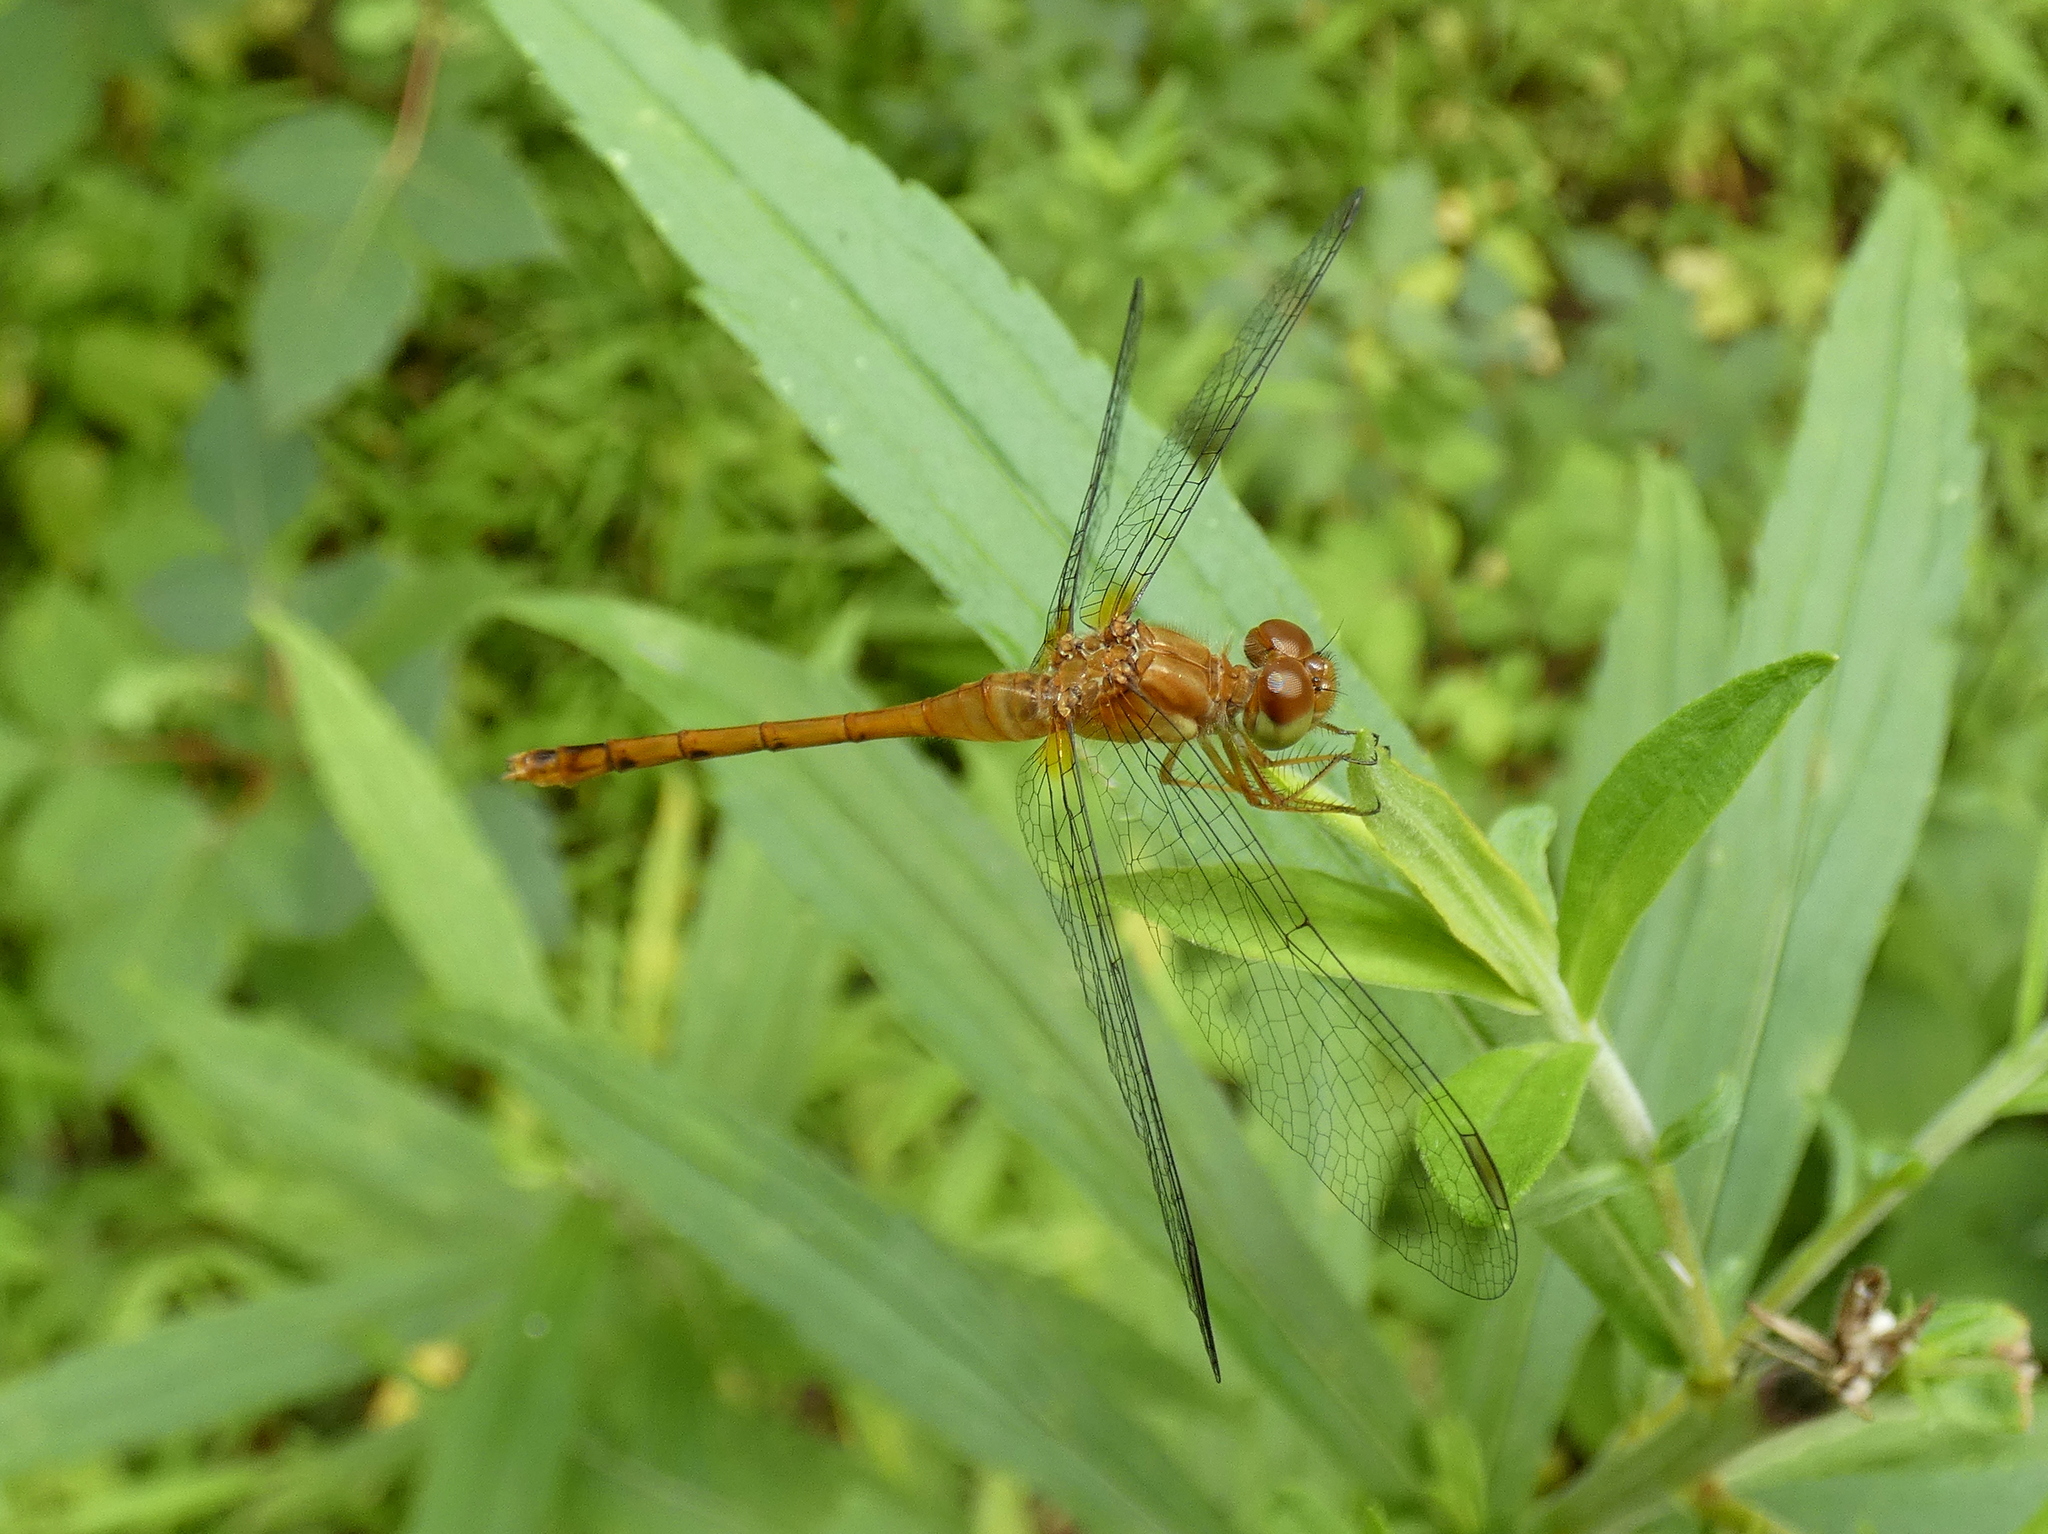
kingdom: Animalia
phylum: Arthropoda
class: Insecta
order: Odonata
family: Libellulidae
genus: Sympetrum
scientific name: Sympetrum vicinum
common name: Autumn meadowhawk
